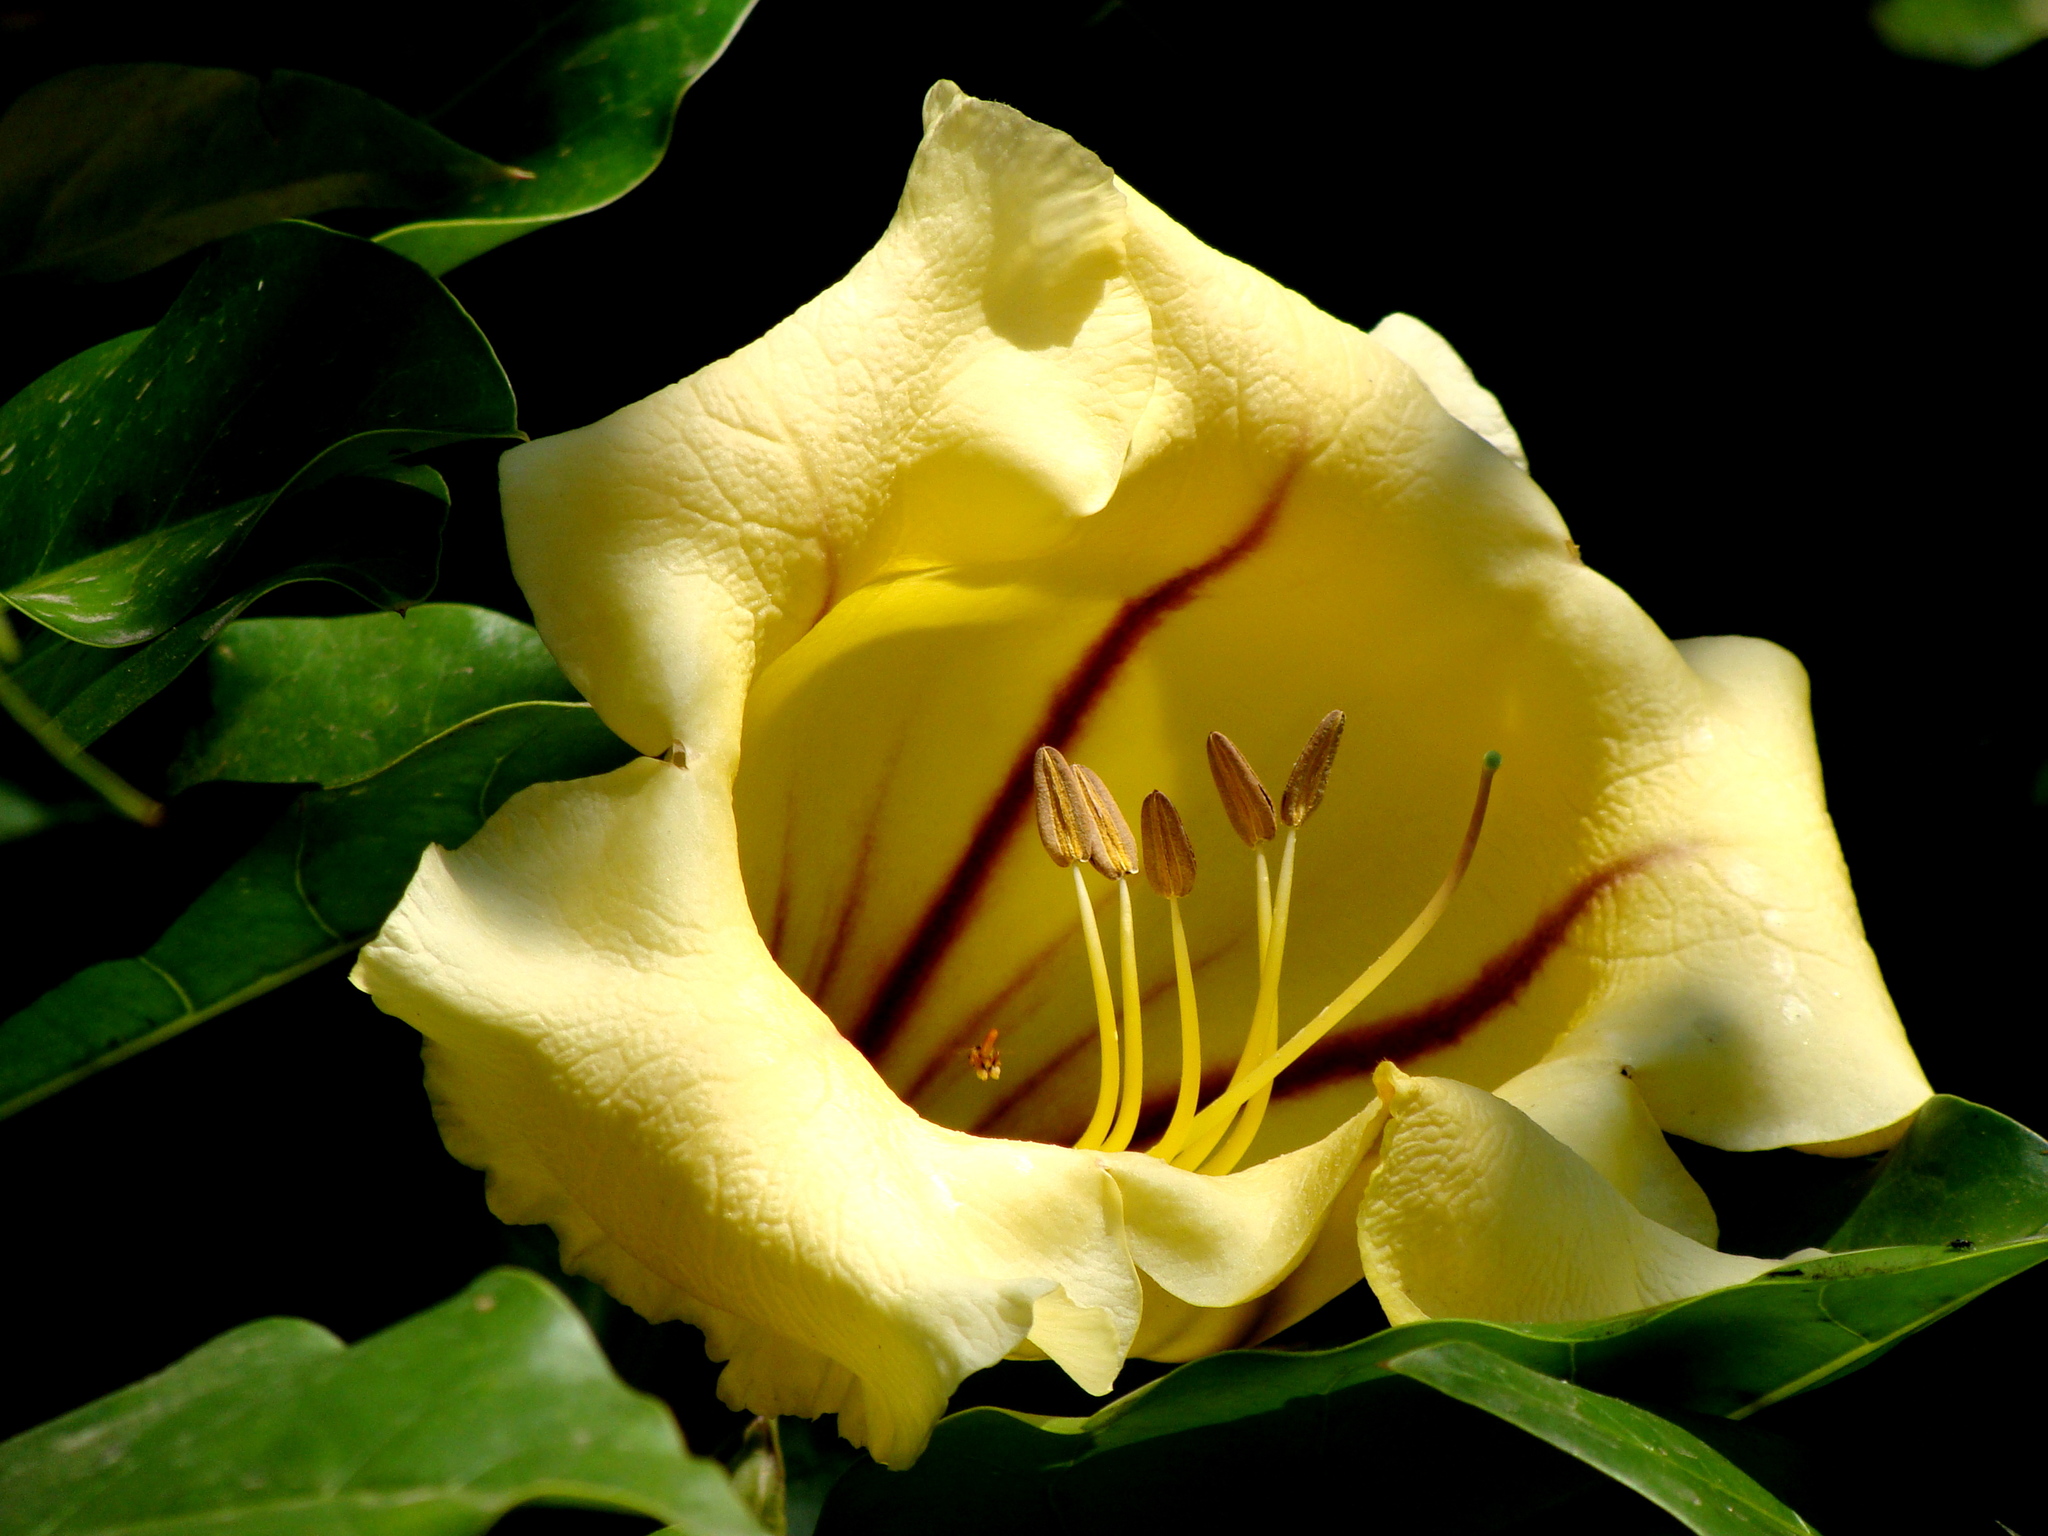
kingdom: Plantae
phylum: Tracheophyta
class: Magnoliopsida
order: Solanales
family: Solanaceae
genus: Solandra
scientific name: Solandra maxima
